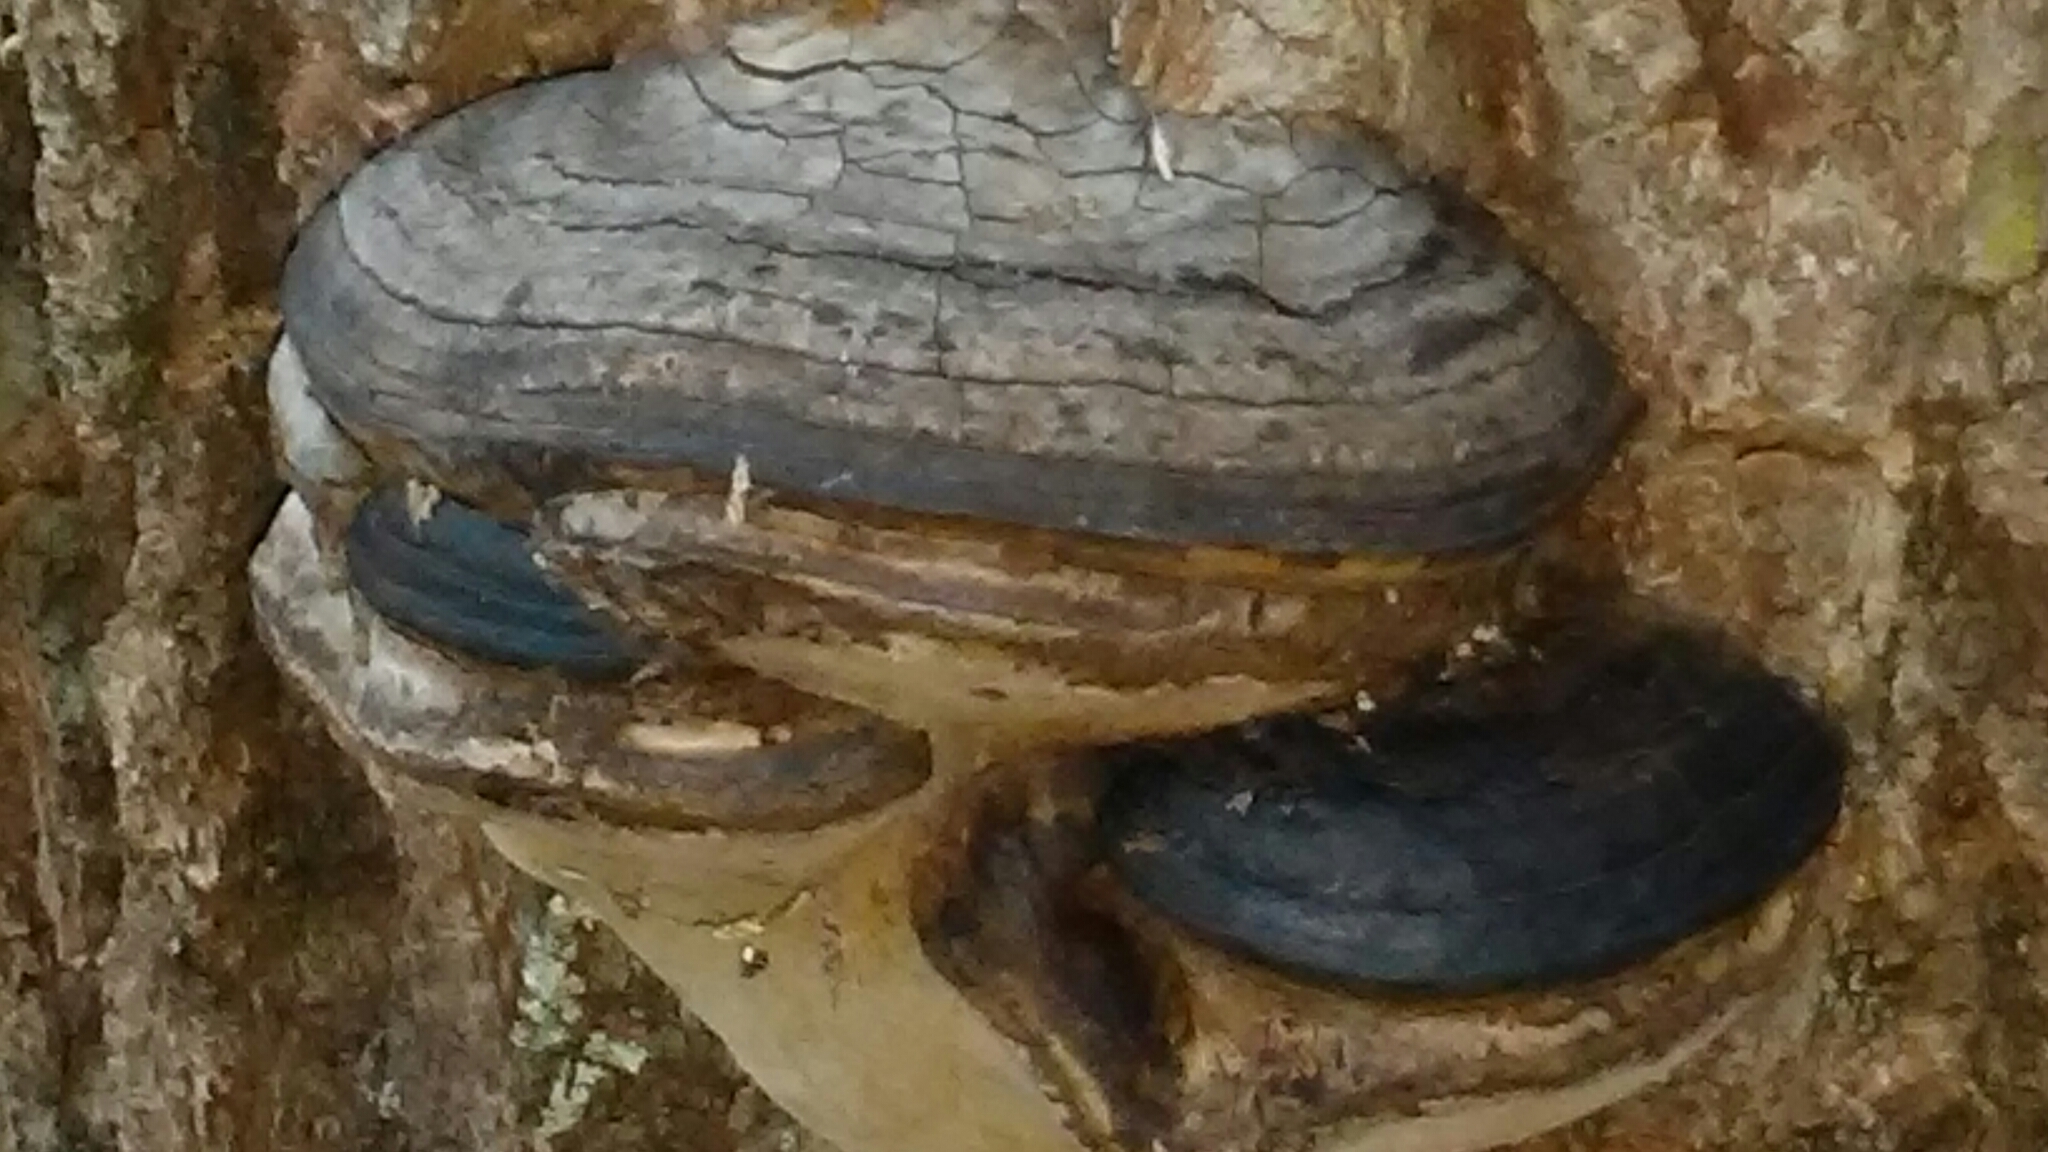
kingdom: Fungi
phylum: Basidiomycota
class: Agaricomycetes
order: Polyporales
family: Polyporaceae
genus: Fomes
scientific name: Fomes fasciatus
